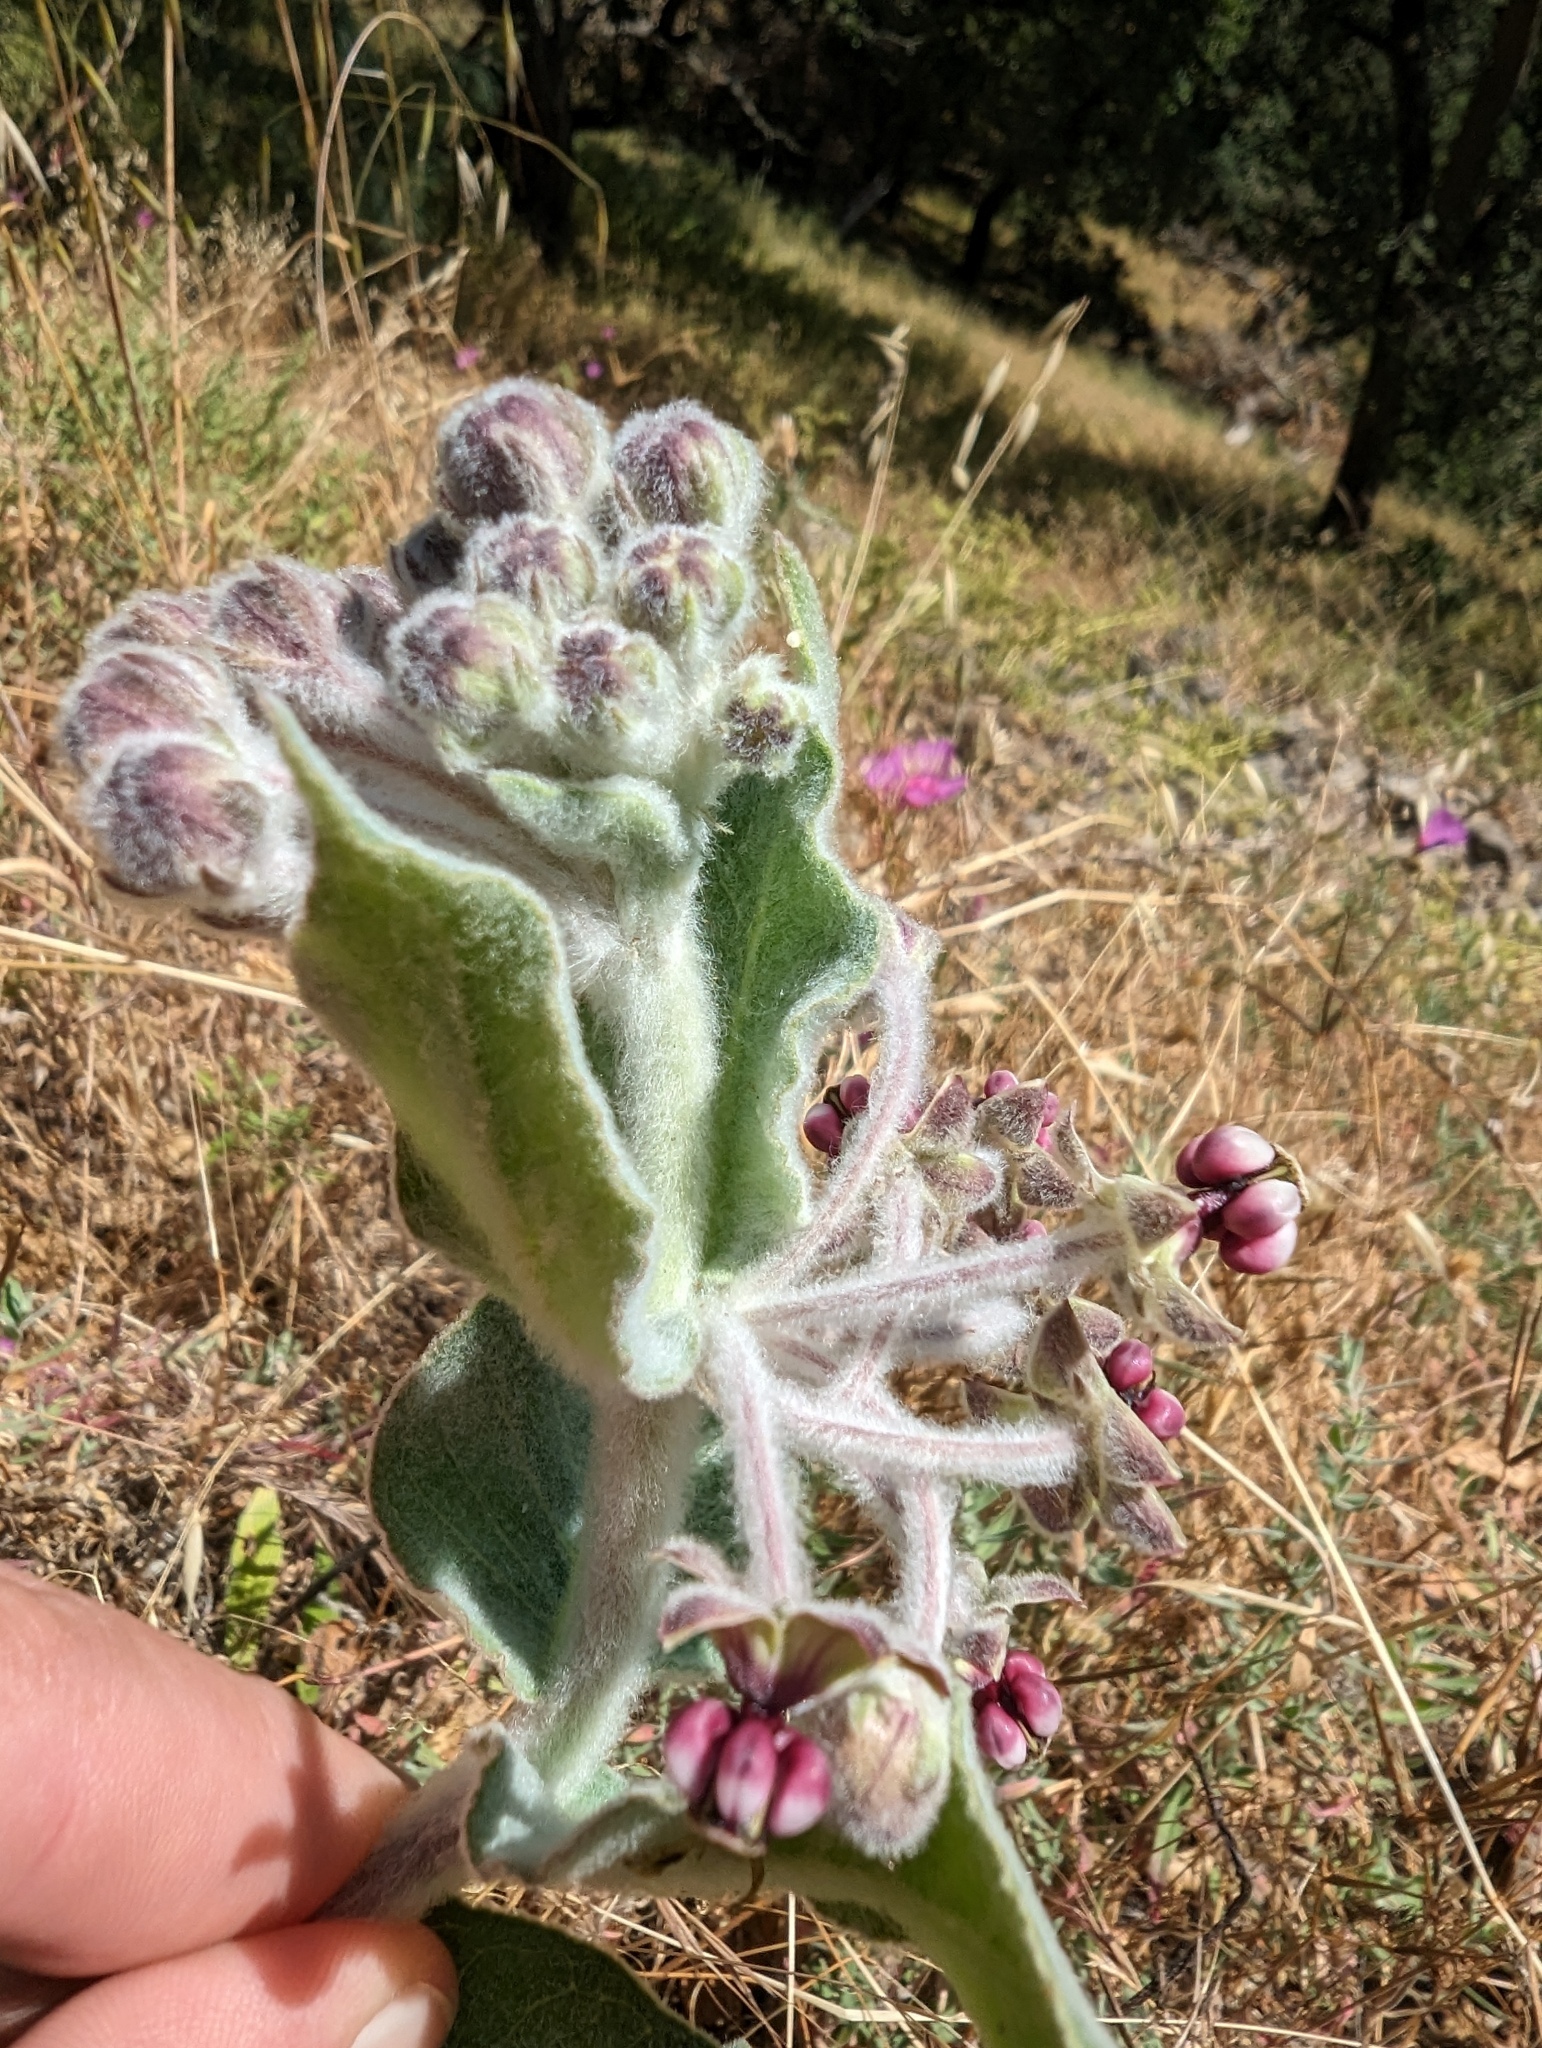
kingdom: Plantae
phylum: Tracheophyta
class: Magnoliopsida
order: Gentianales
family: Apocynaceae
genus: Asclepias
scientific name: Asclepias californica
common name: California milkweed
